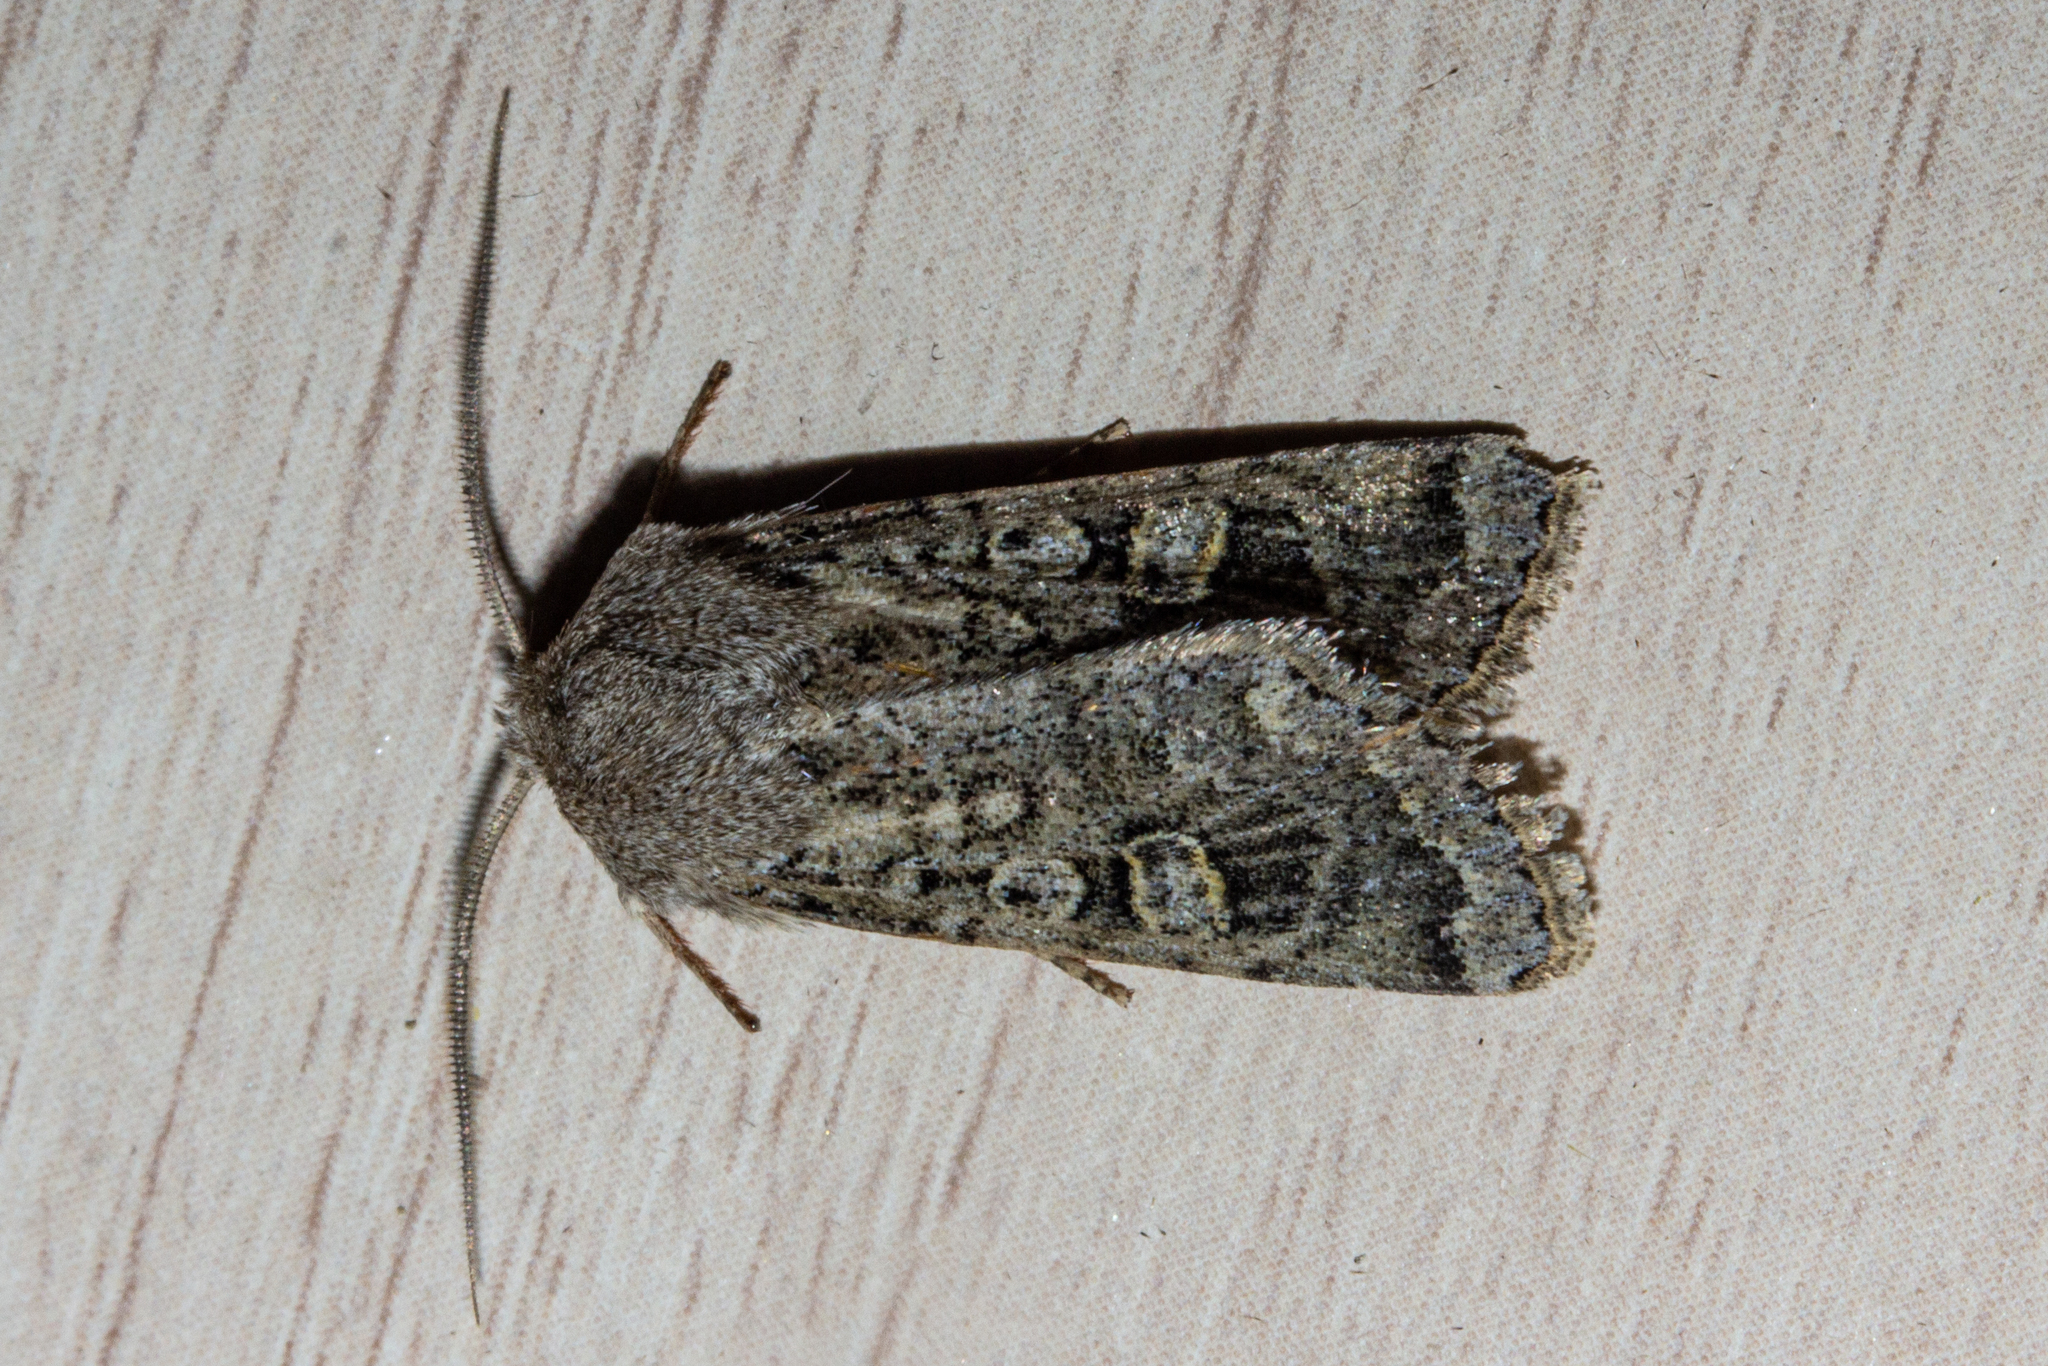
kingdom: Animalia
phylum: Arthropoda
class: Insecta
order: Lepidoptera
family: Noctuidae
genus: Ichneutica
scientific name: Ichneutica
